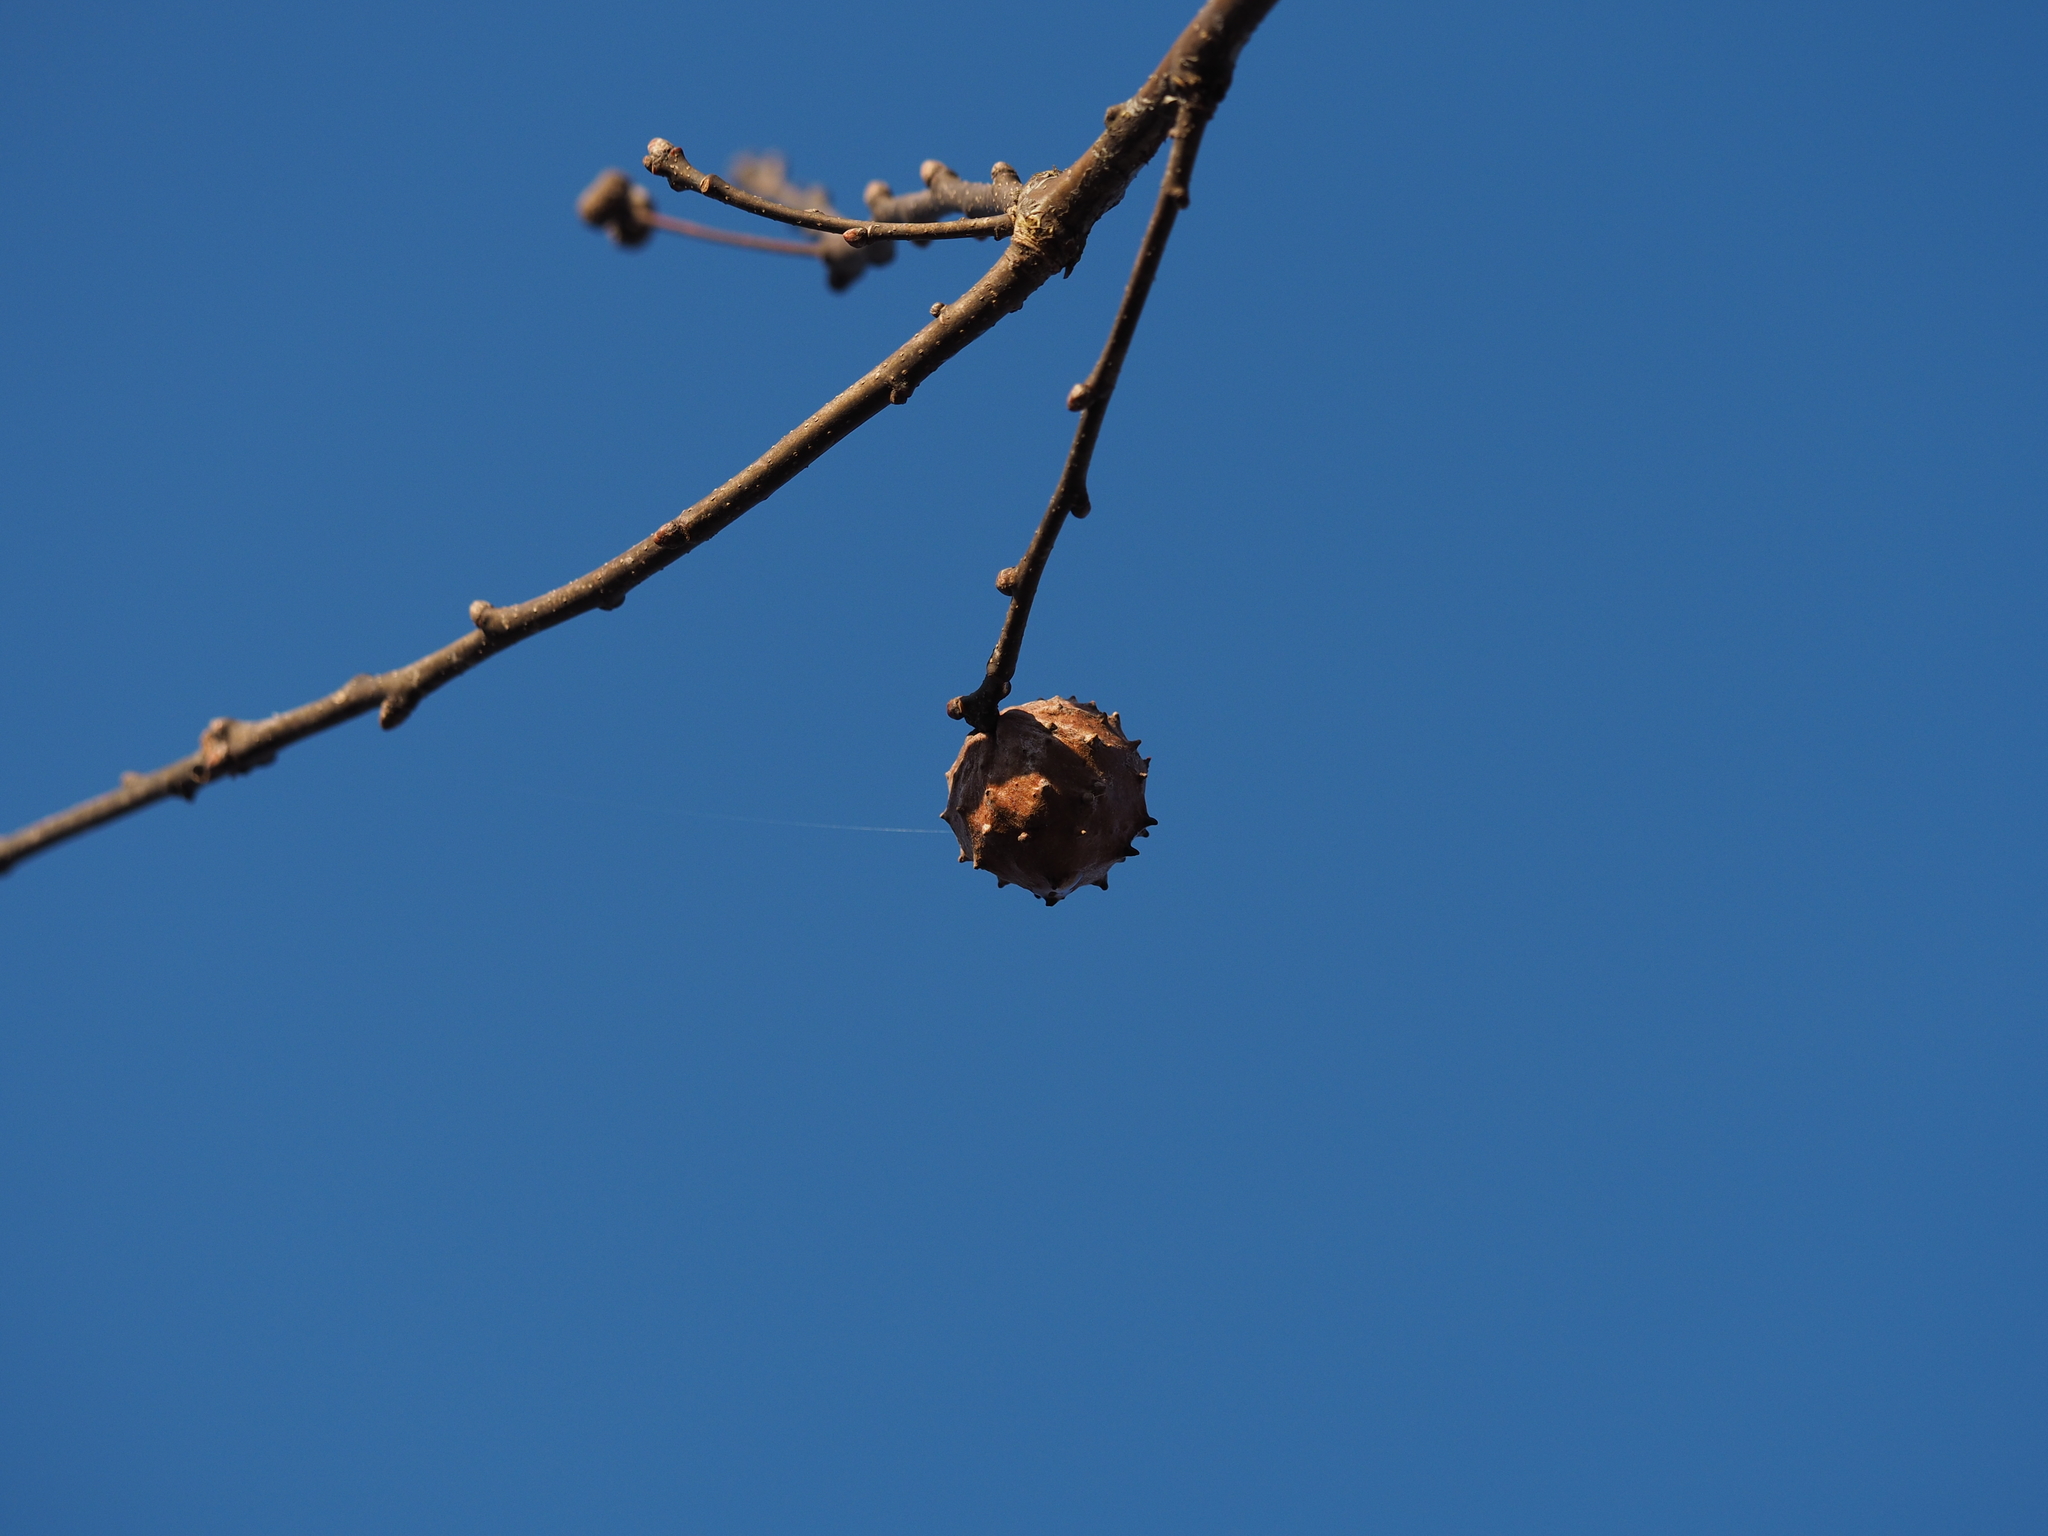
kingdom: Animalia
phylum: Arthropoda
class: Insecta
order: Hymenoptera
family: Cynipidae
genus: Andricus
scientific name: Andricus hungaricus
